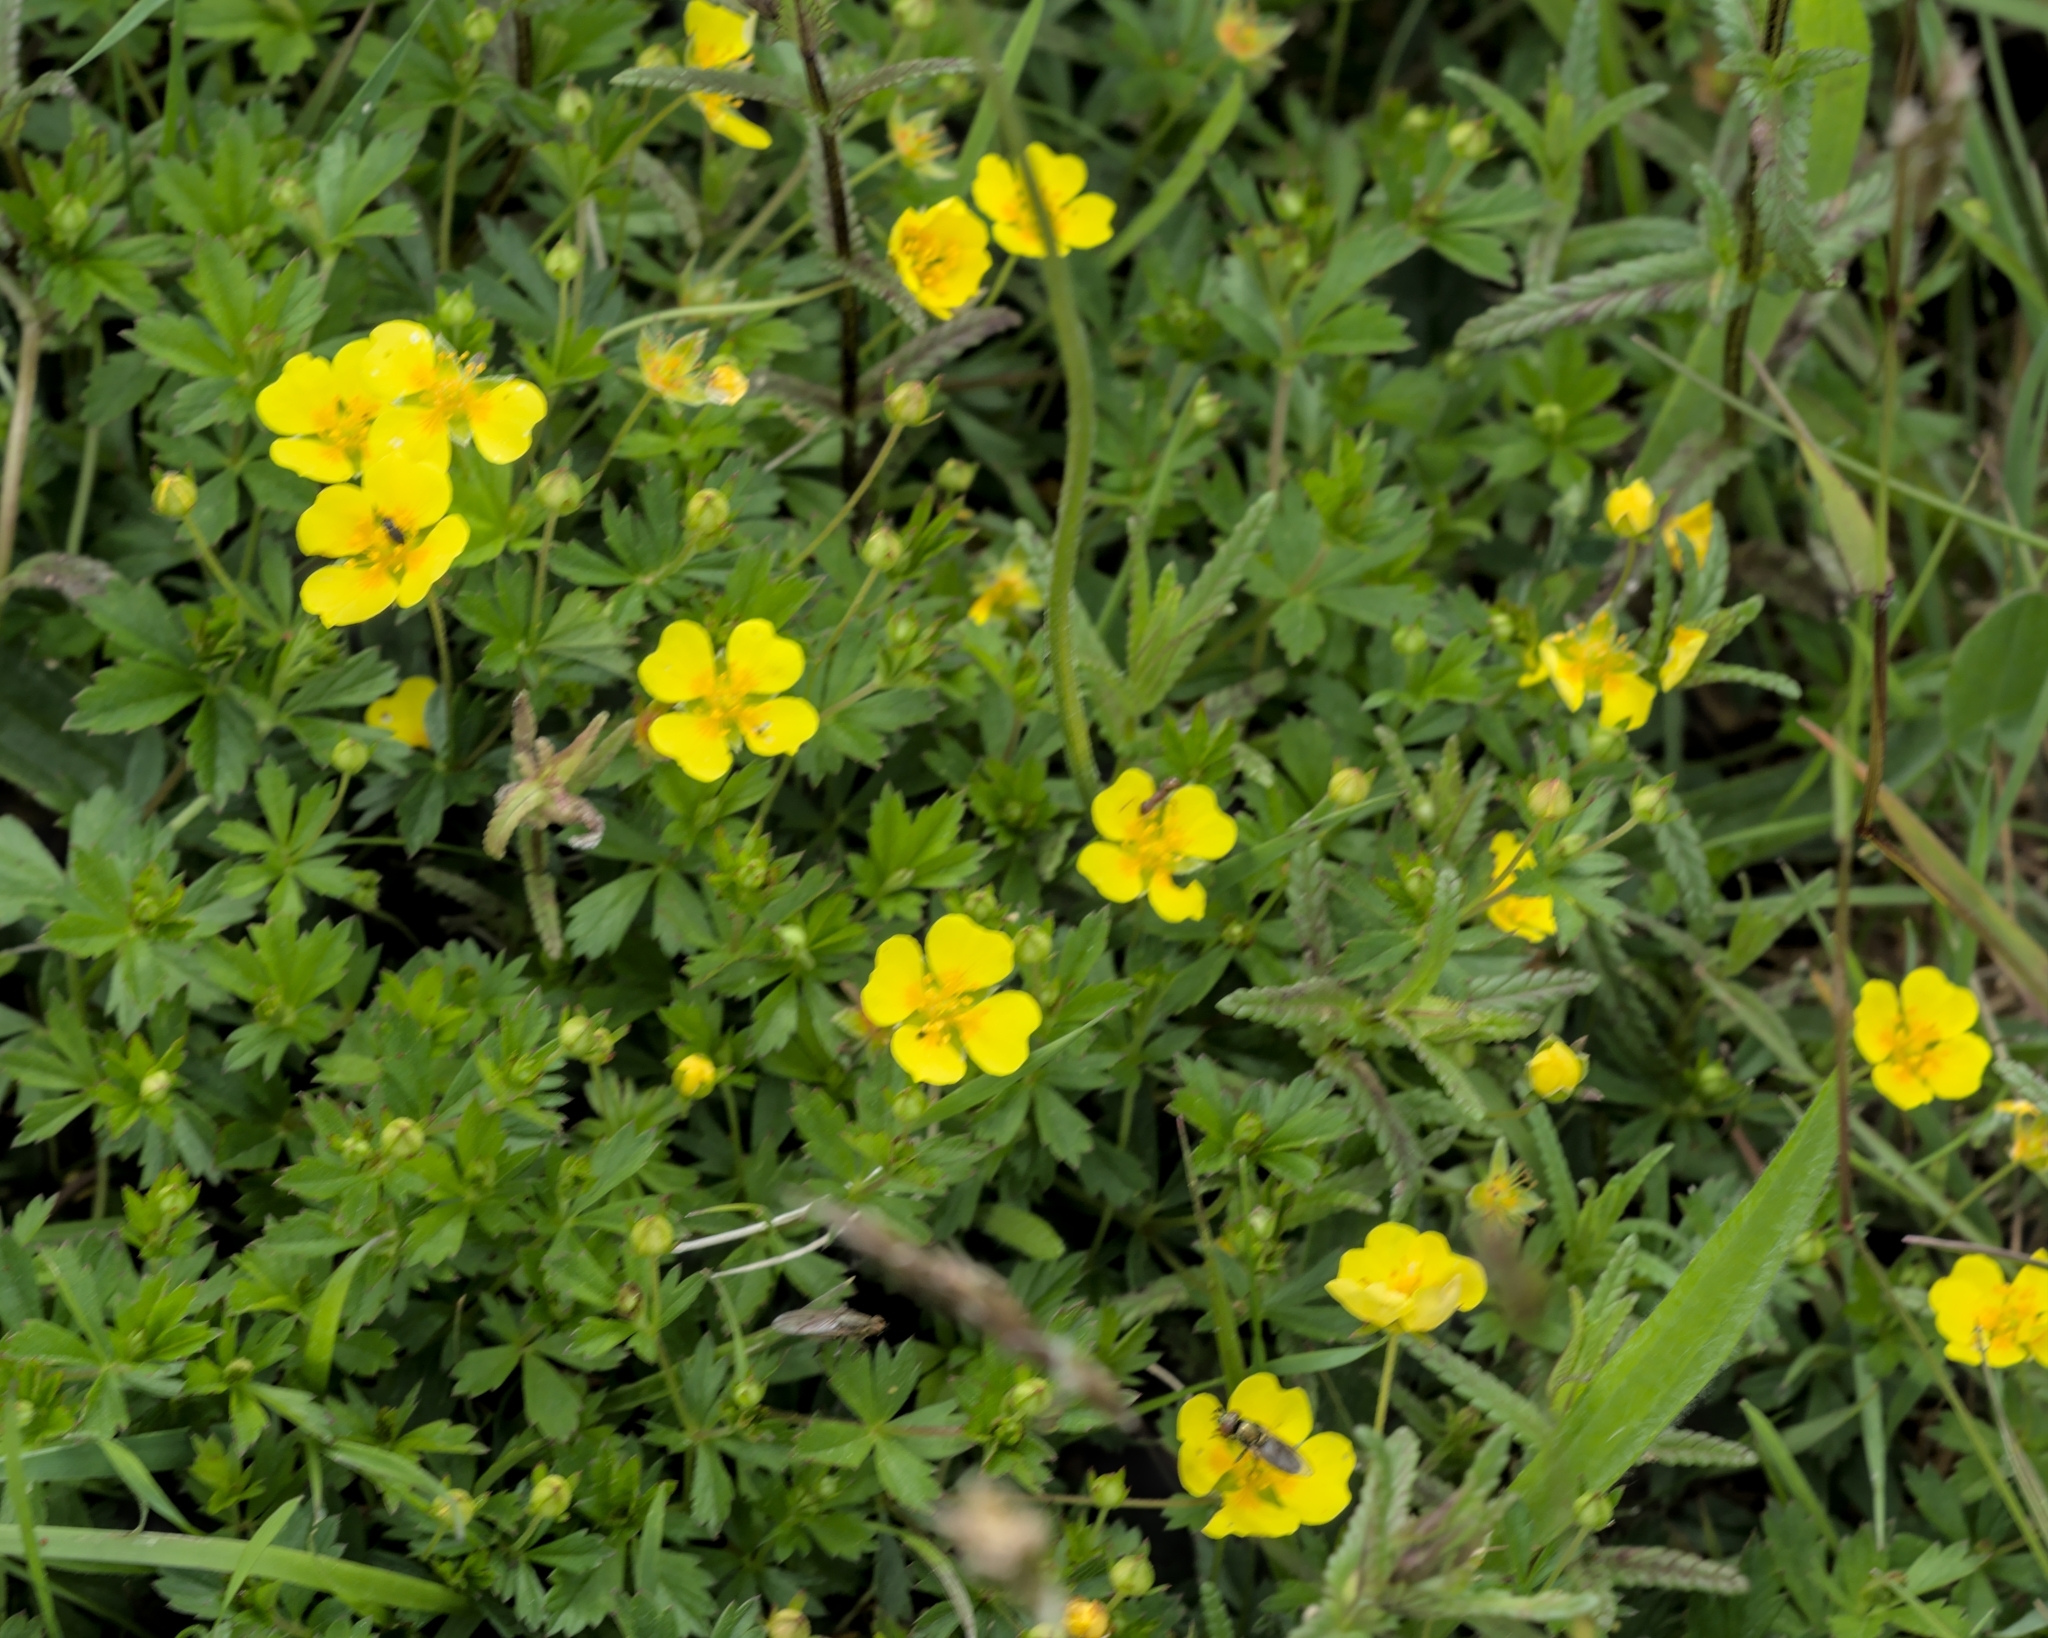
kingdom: Plantae
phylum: Tracheophyta
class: Magnoliopsida
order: Rosales
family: Rosaceae
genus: Potentilla
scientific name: Potentilla erecta
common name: Tormentil
